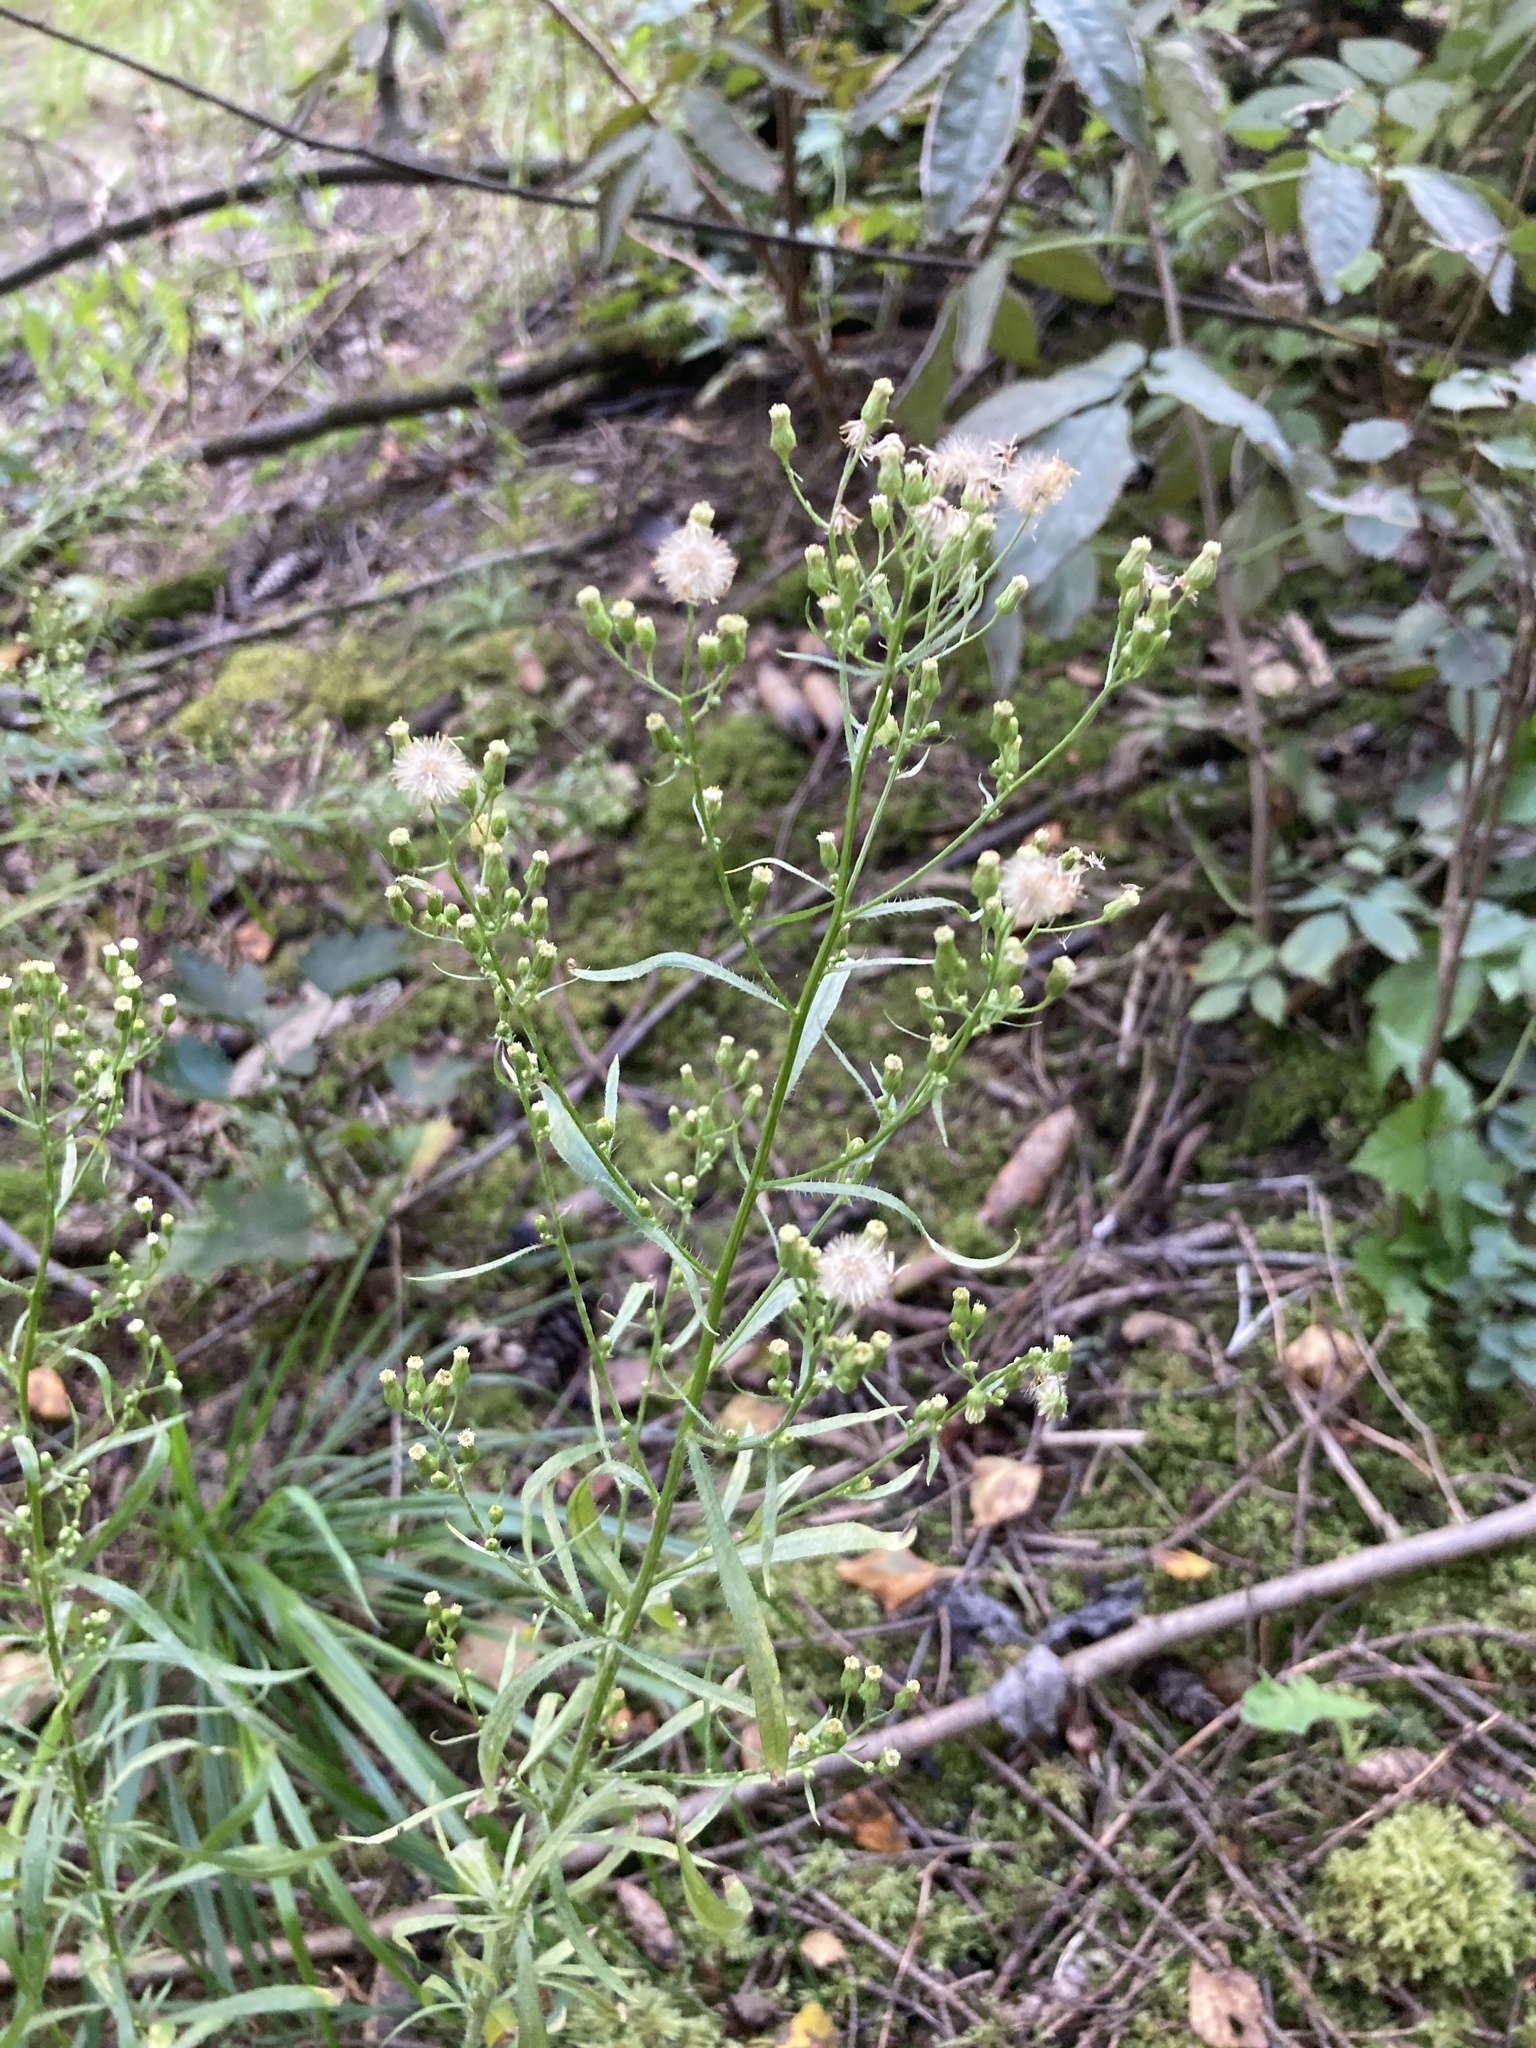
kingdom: Plantae
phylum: Tracheophyta
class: Magnoliopsida
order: Asterales
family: Asteraceae
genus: Erigeron
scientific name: Erigeron canadensis
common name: Canadian fleabane
